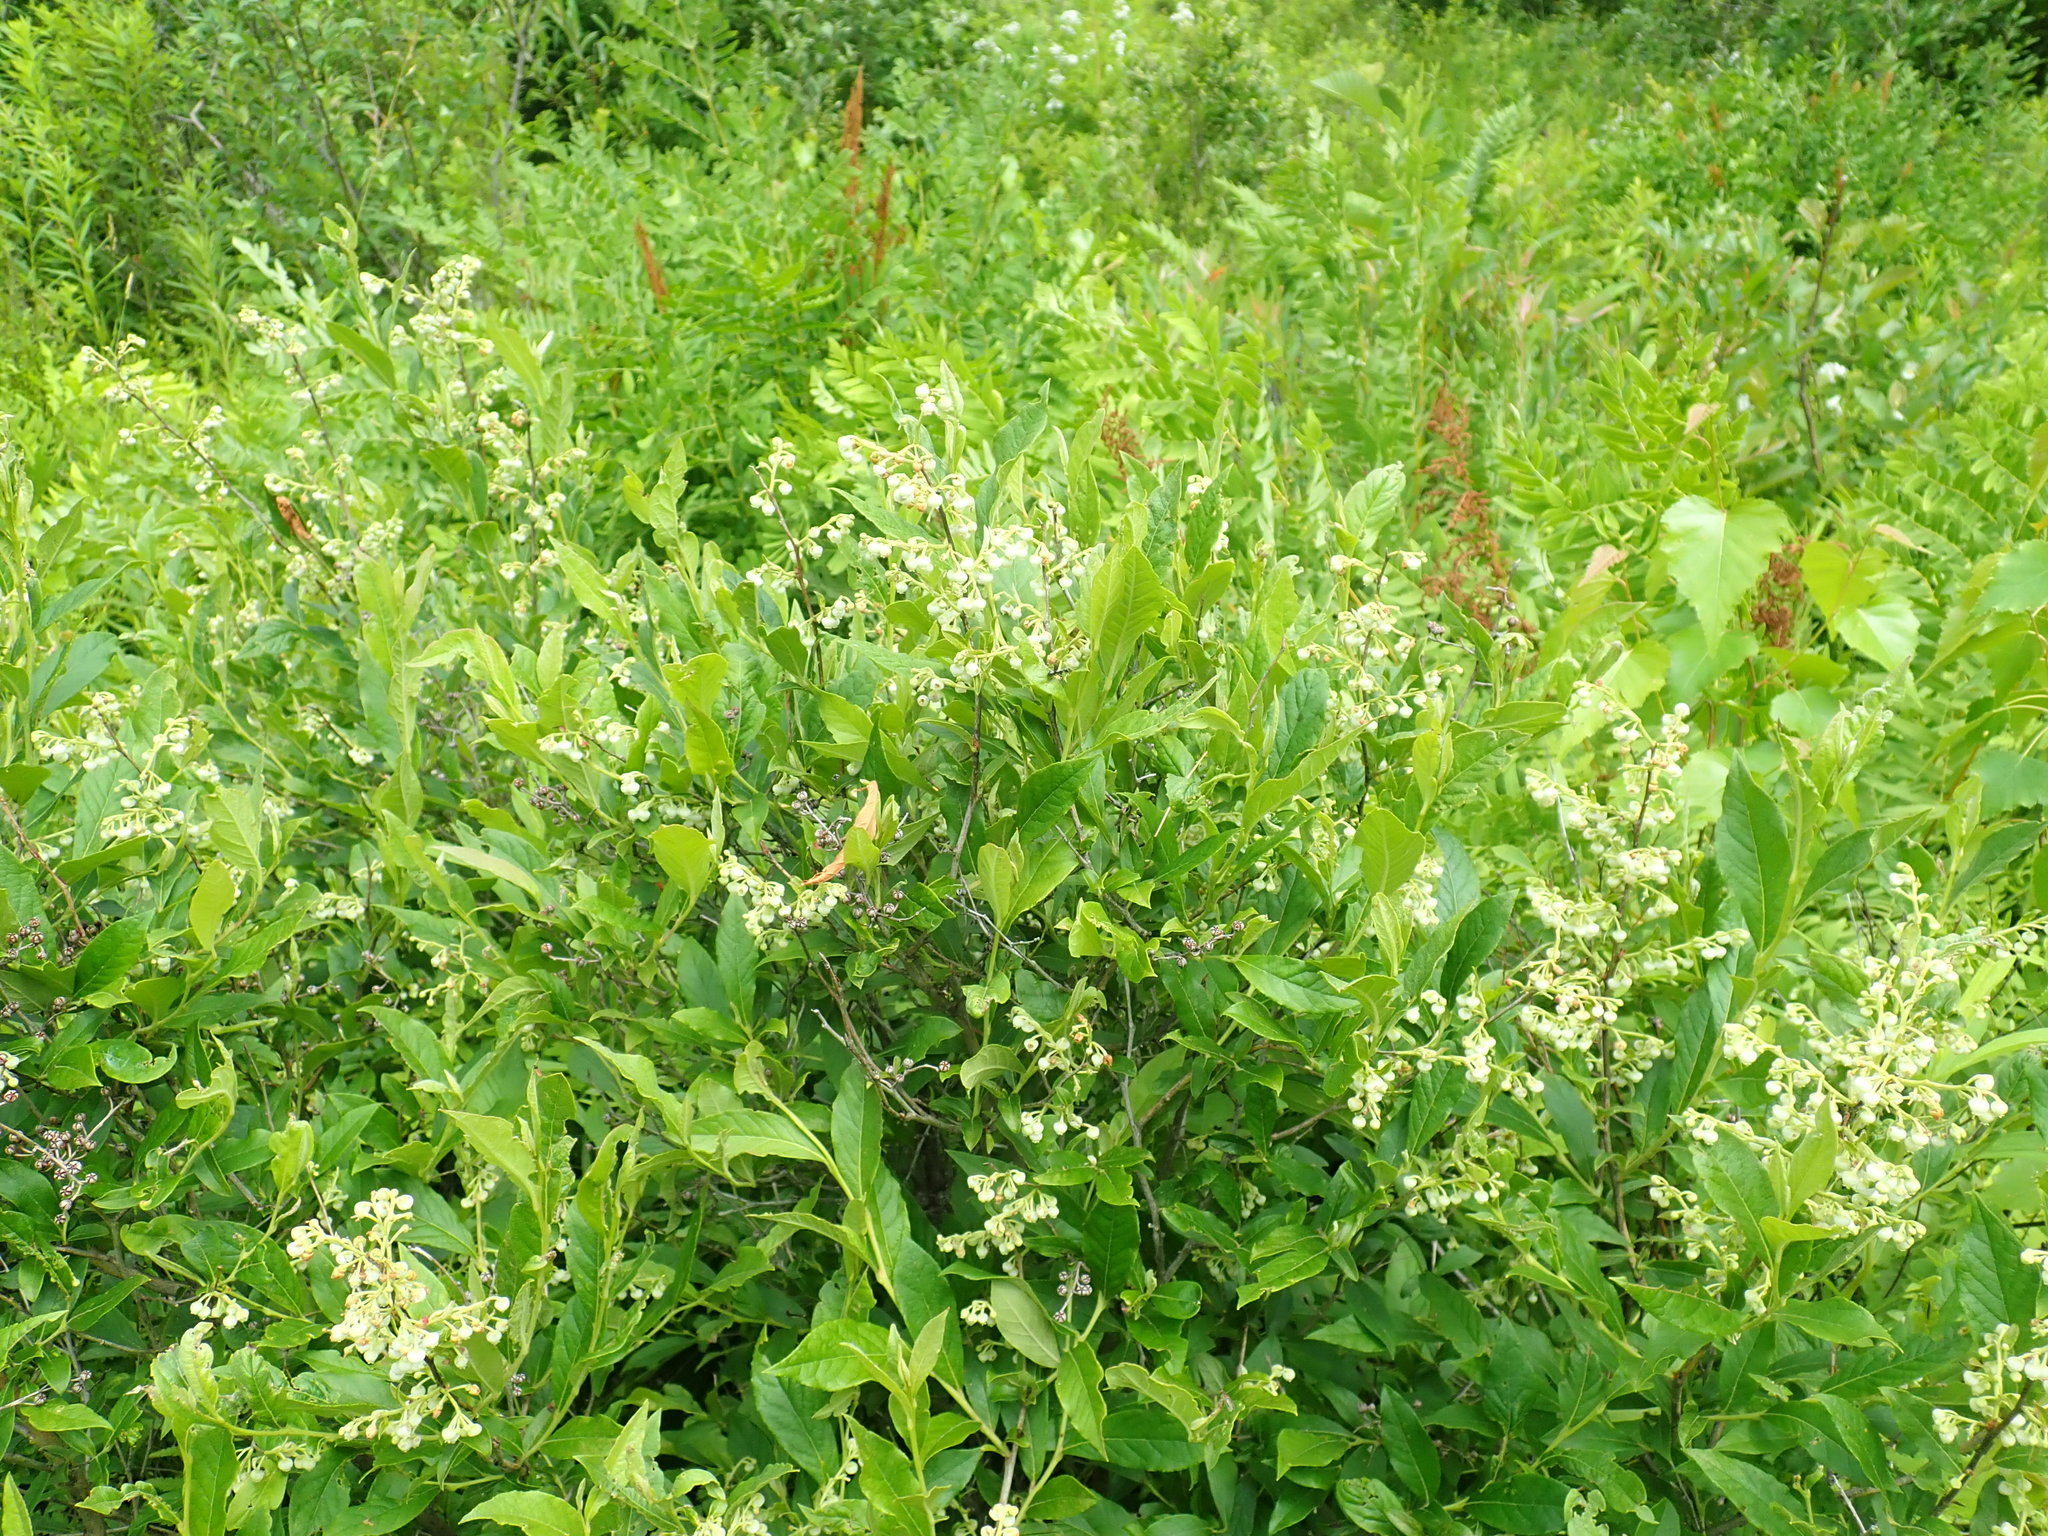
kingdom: Plantae
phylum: Tracheophyta
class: Magnoliopsida
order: Ericales
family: Ericaceae
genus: Lyonia
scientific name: Lyonia ligustrina
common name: Maleberry
